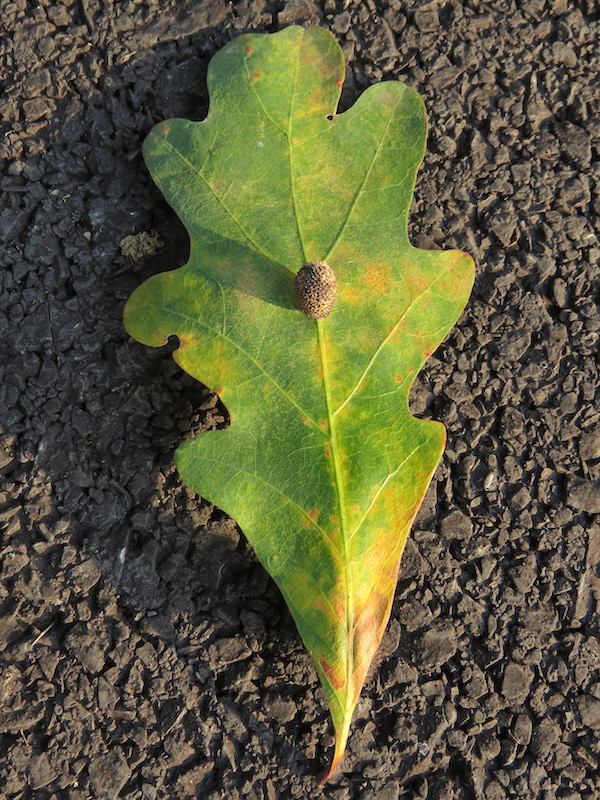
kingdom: Plantae
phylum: Tracheophyta
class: Magnoliopsida
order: Fagales
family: Fagaceae
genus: Quercus
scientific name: Quercus alba
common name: White oak
